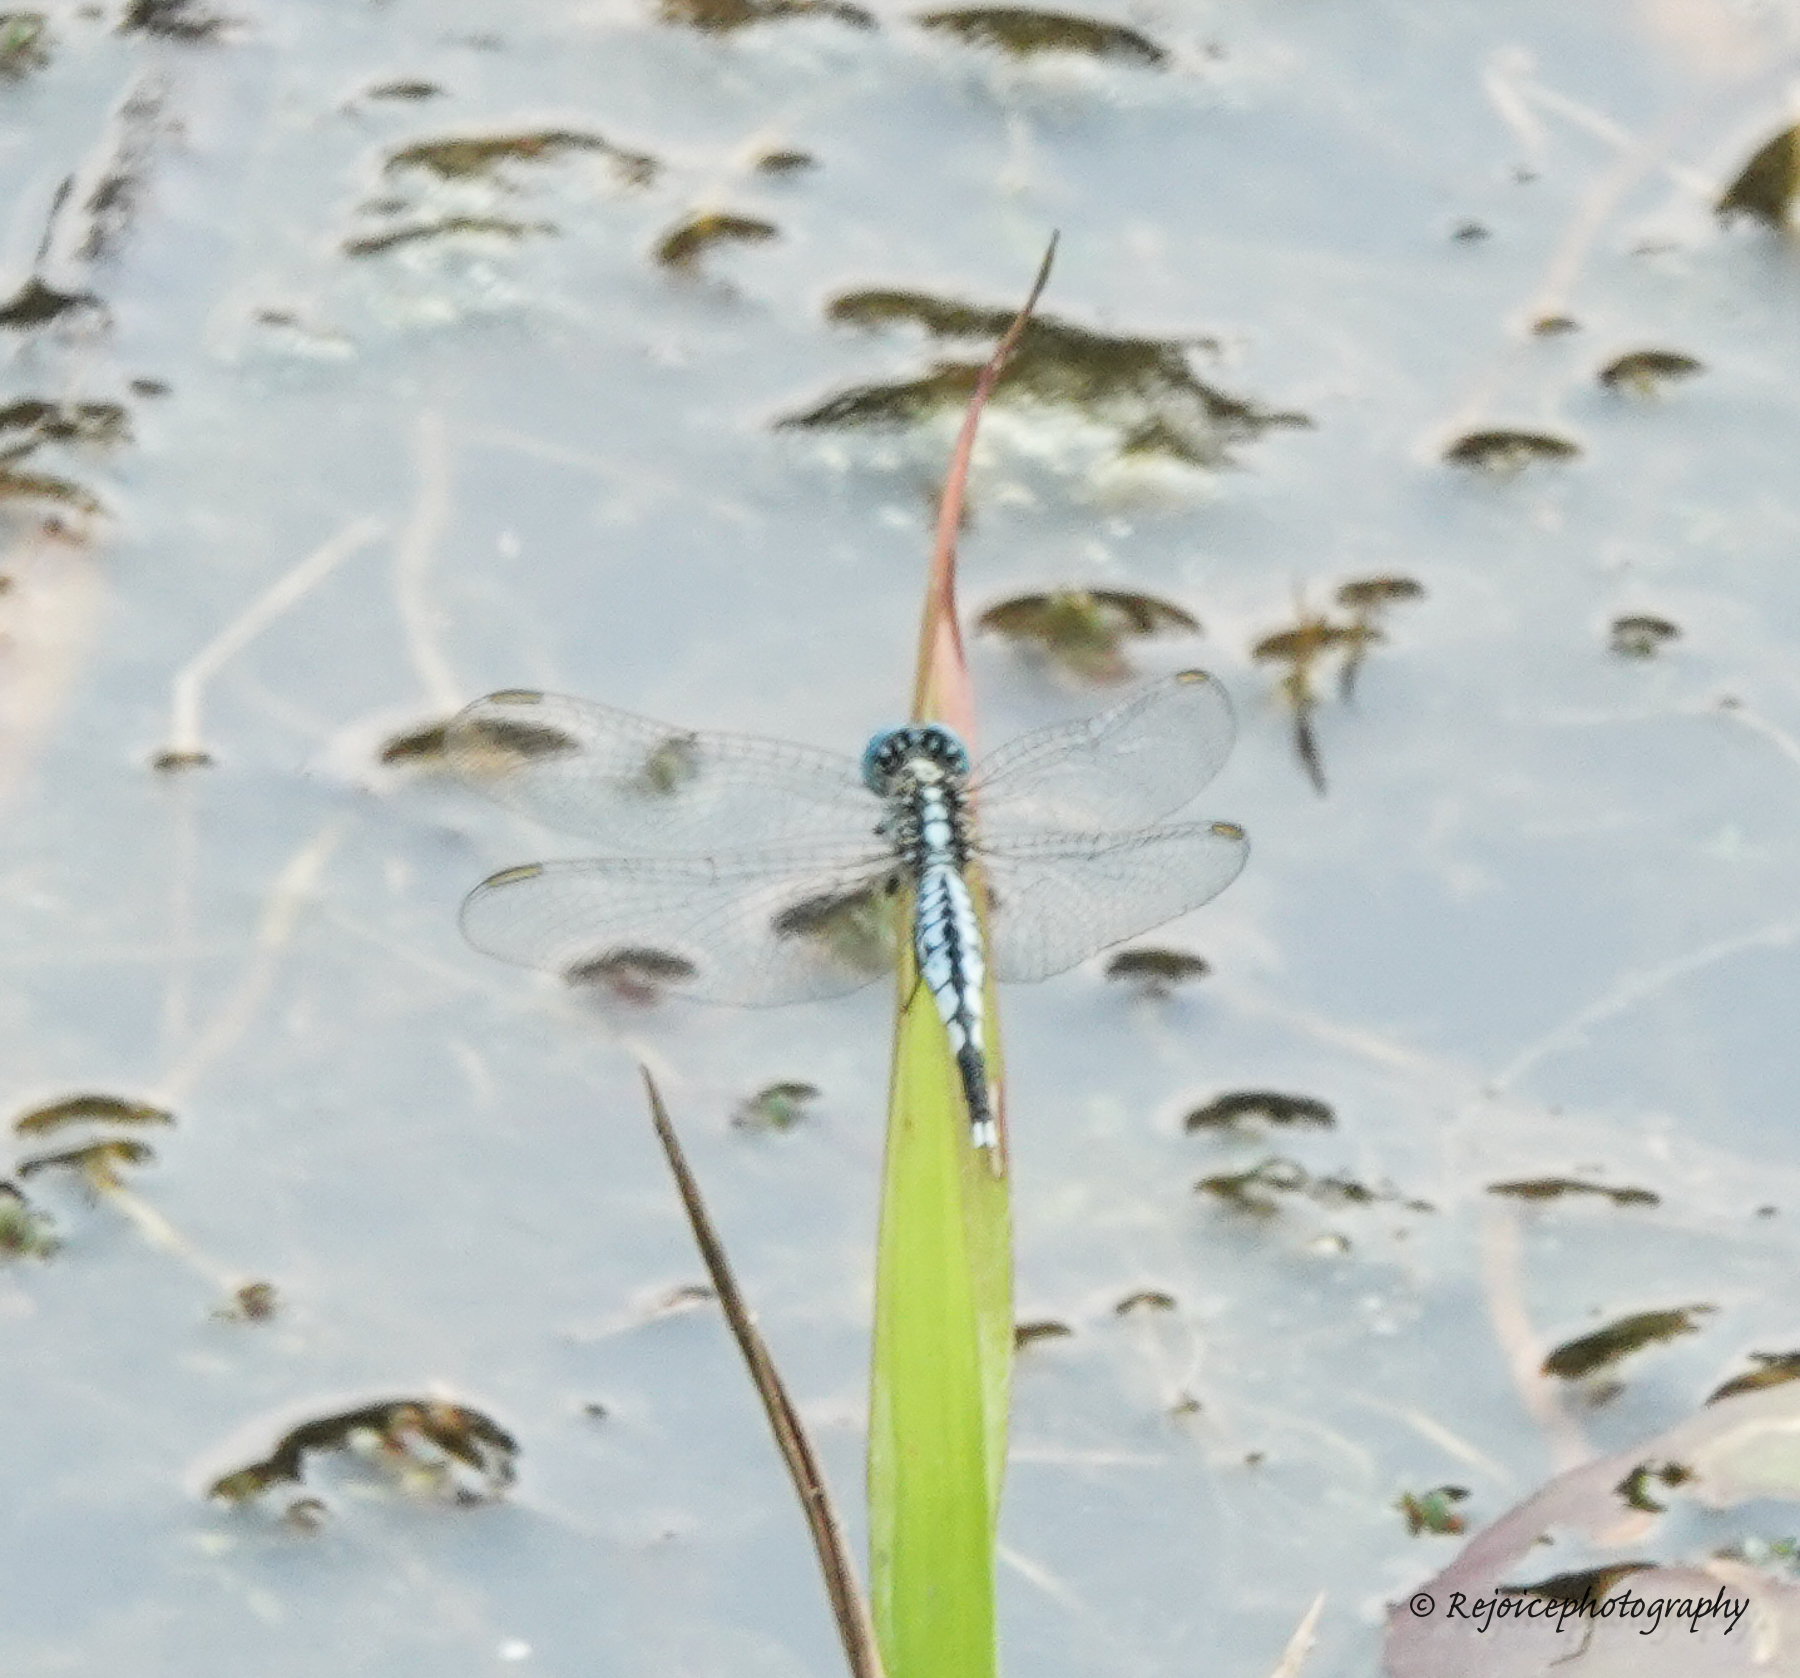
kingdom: Animalia
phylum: Arthropoda
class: Insecta
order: Odonata
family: Libellulidae
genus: Acisoma
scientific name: Acisoma panorpoides
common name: Asian pintail
